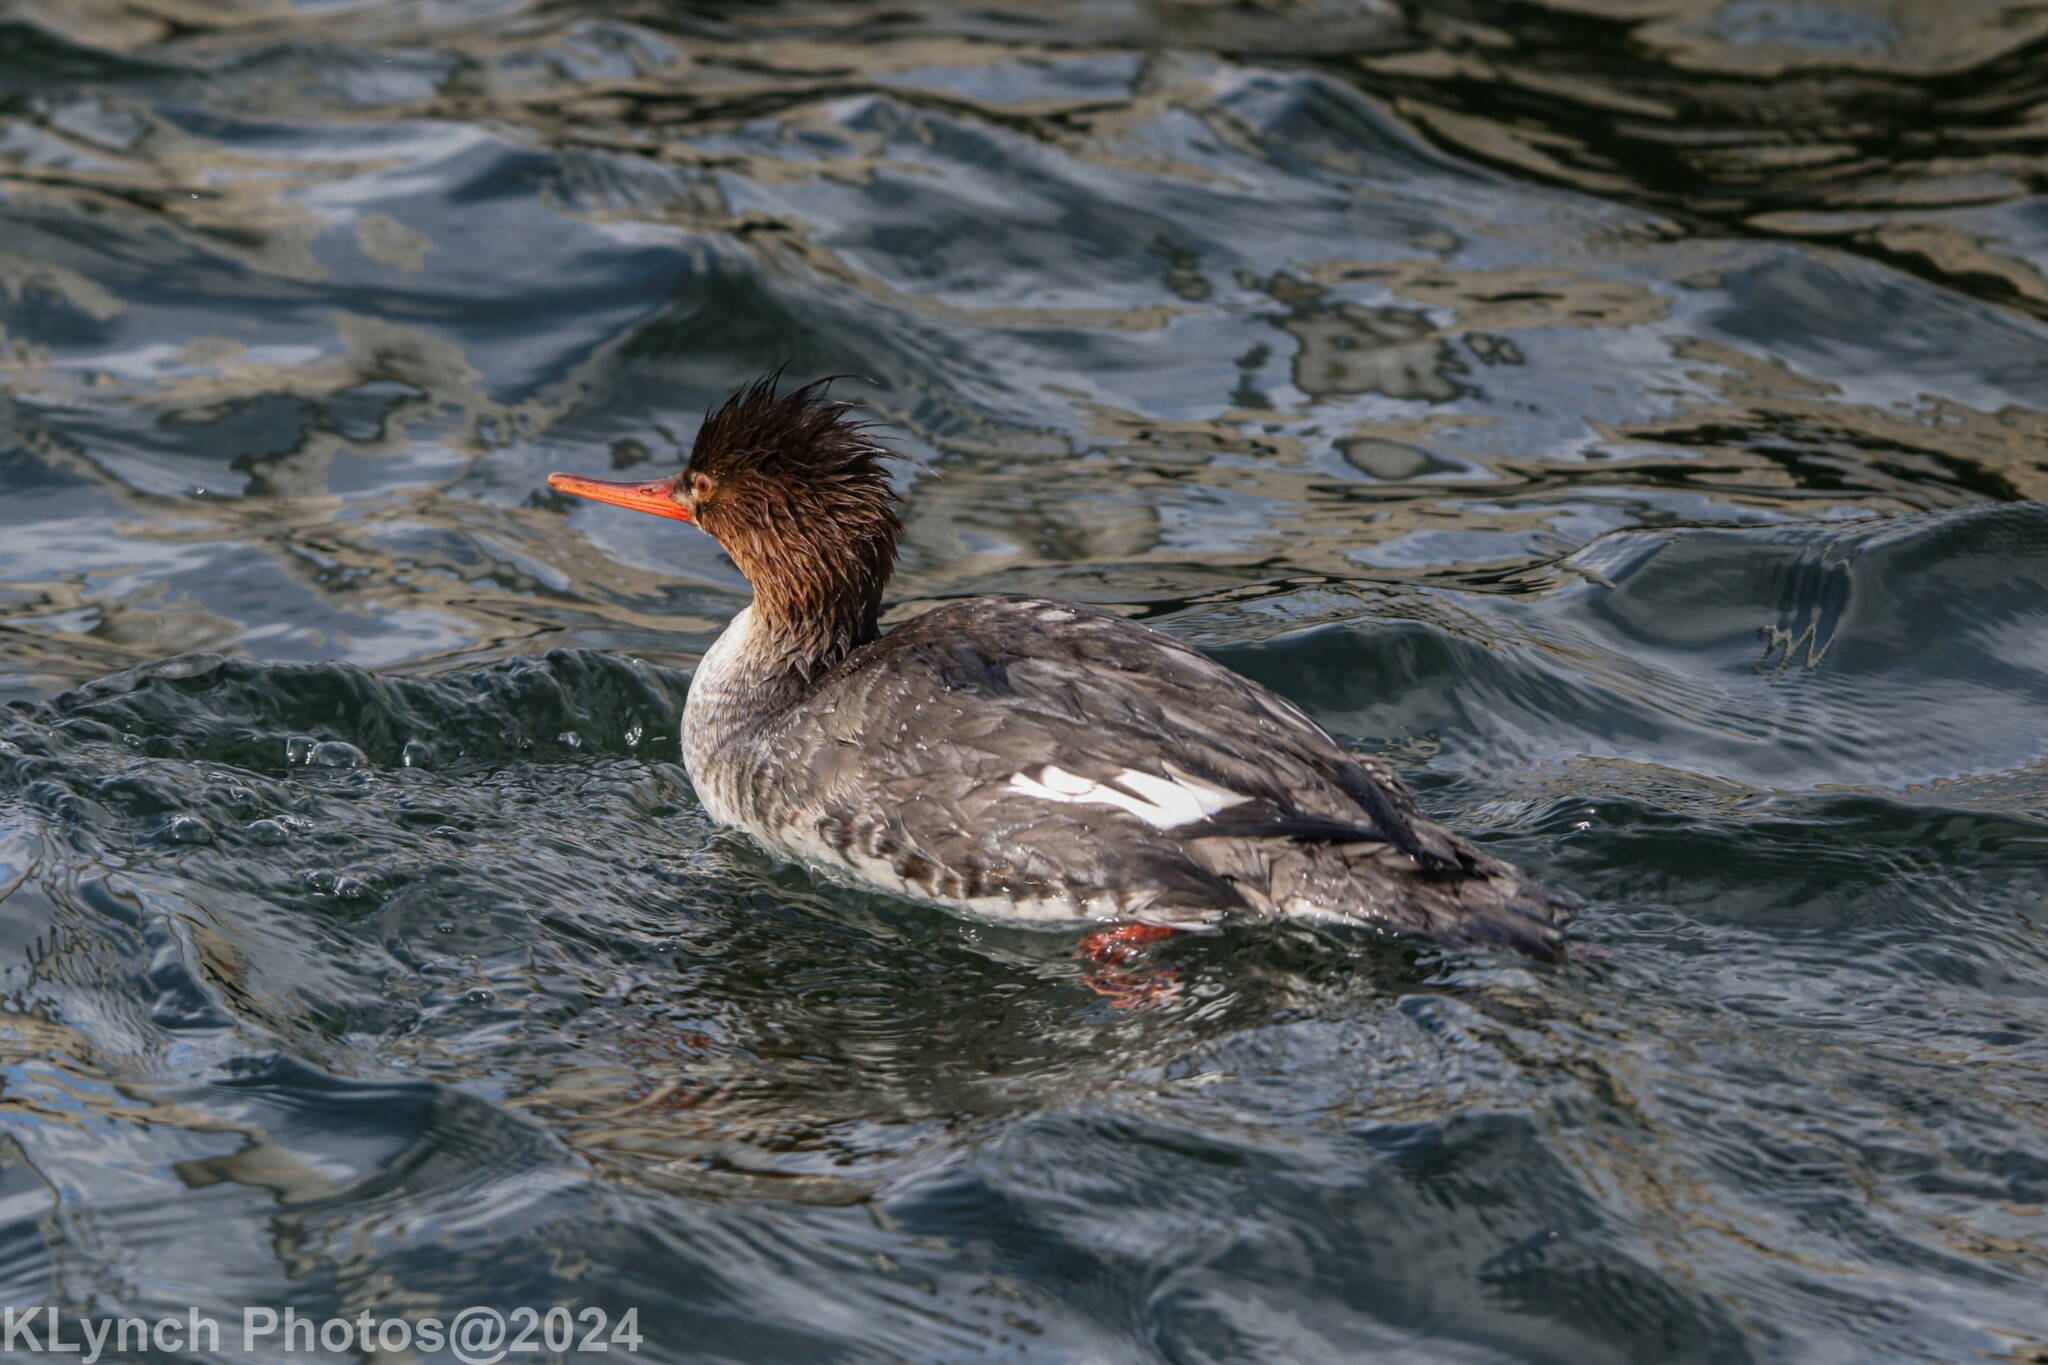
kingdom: Animalia
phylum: Chordata
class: Aves
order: Anseriformes
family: Anatidae
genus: Mergus
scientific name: Mergus serrator
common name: Red-breasted merganser
